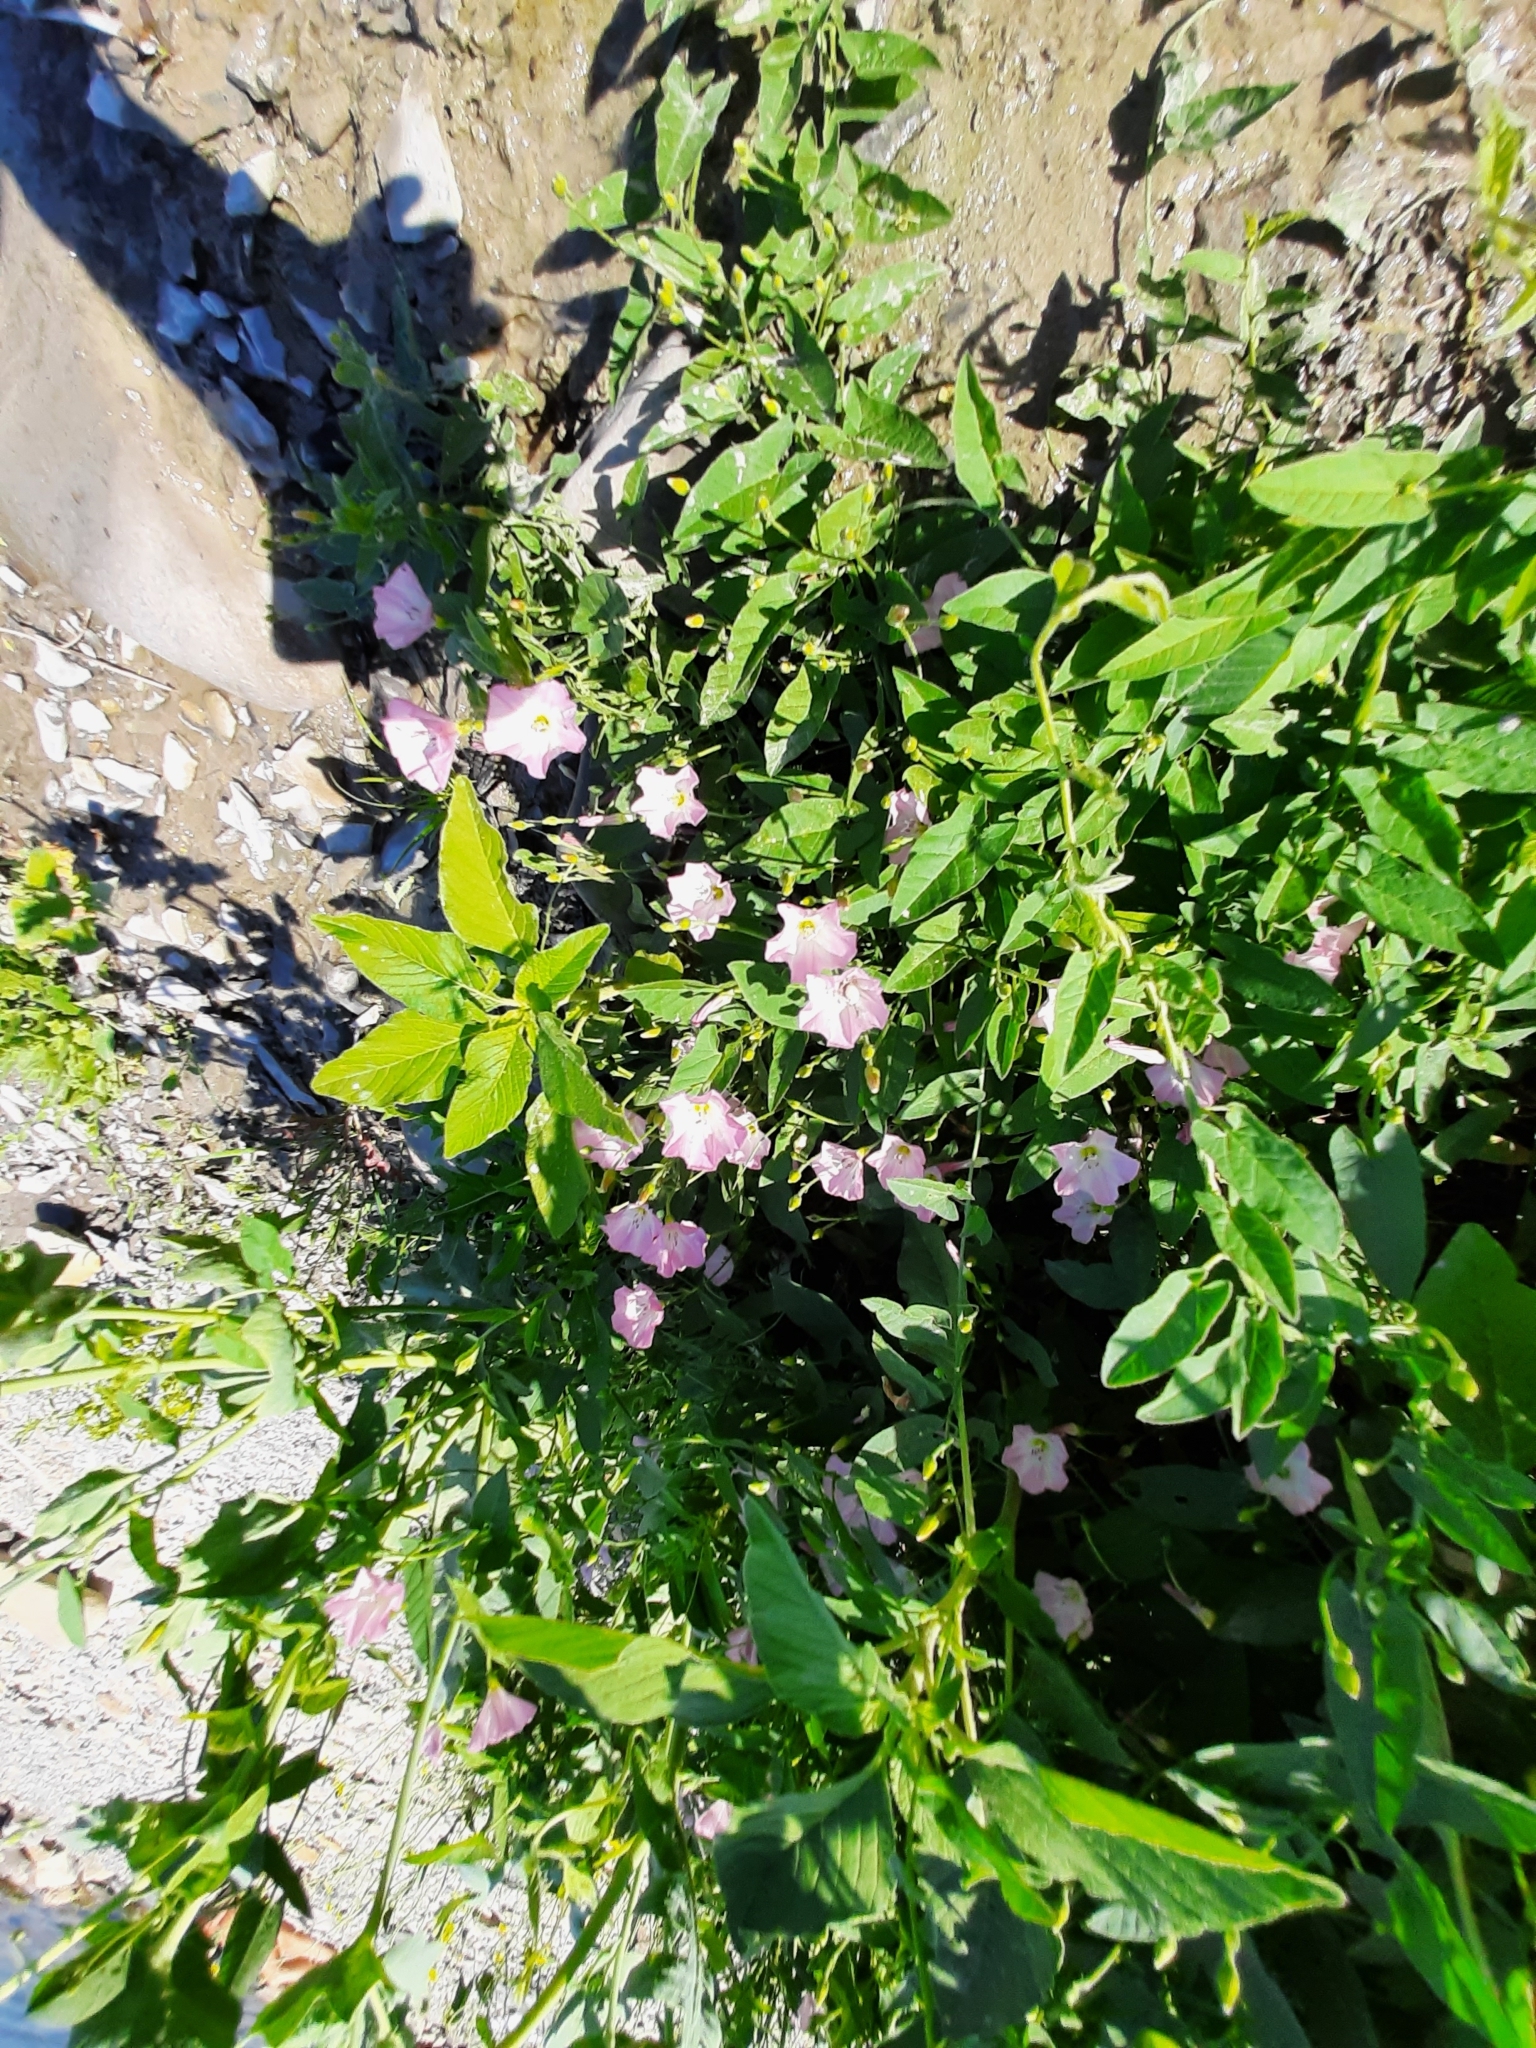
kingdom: Plantae
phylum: Tracheophyta
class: Magnoliopsida
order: Solanales
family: Convolvulaceae
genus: Convolvulus
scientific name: Convolvulus arvensis
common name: Field bindweed
